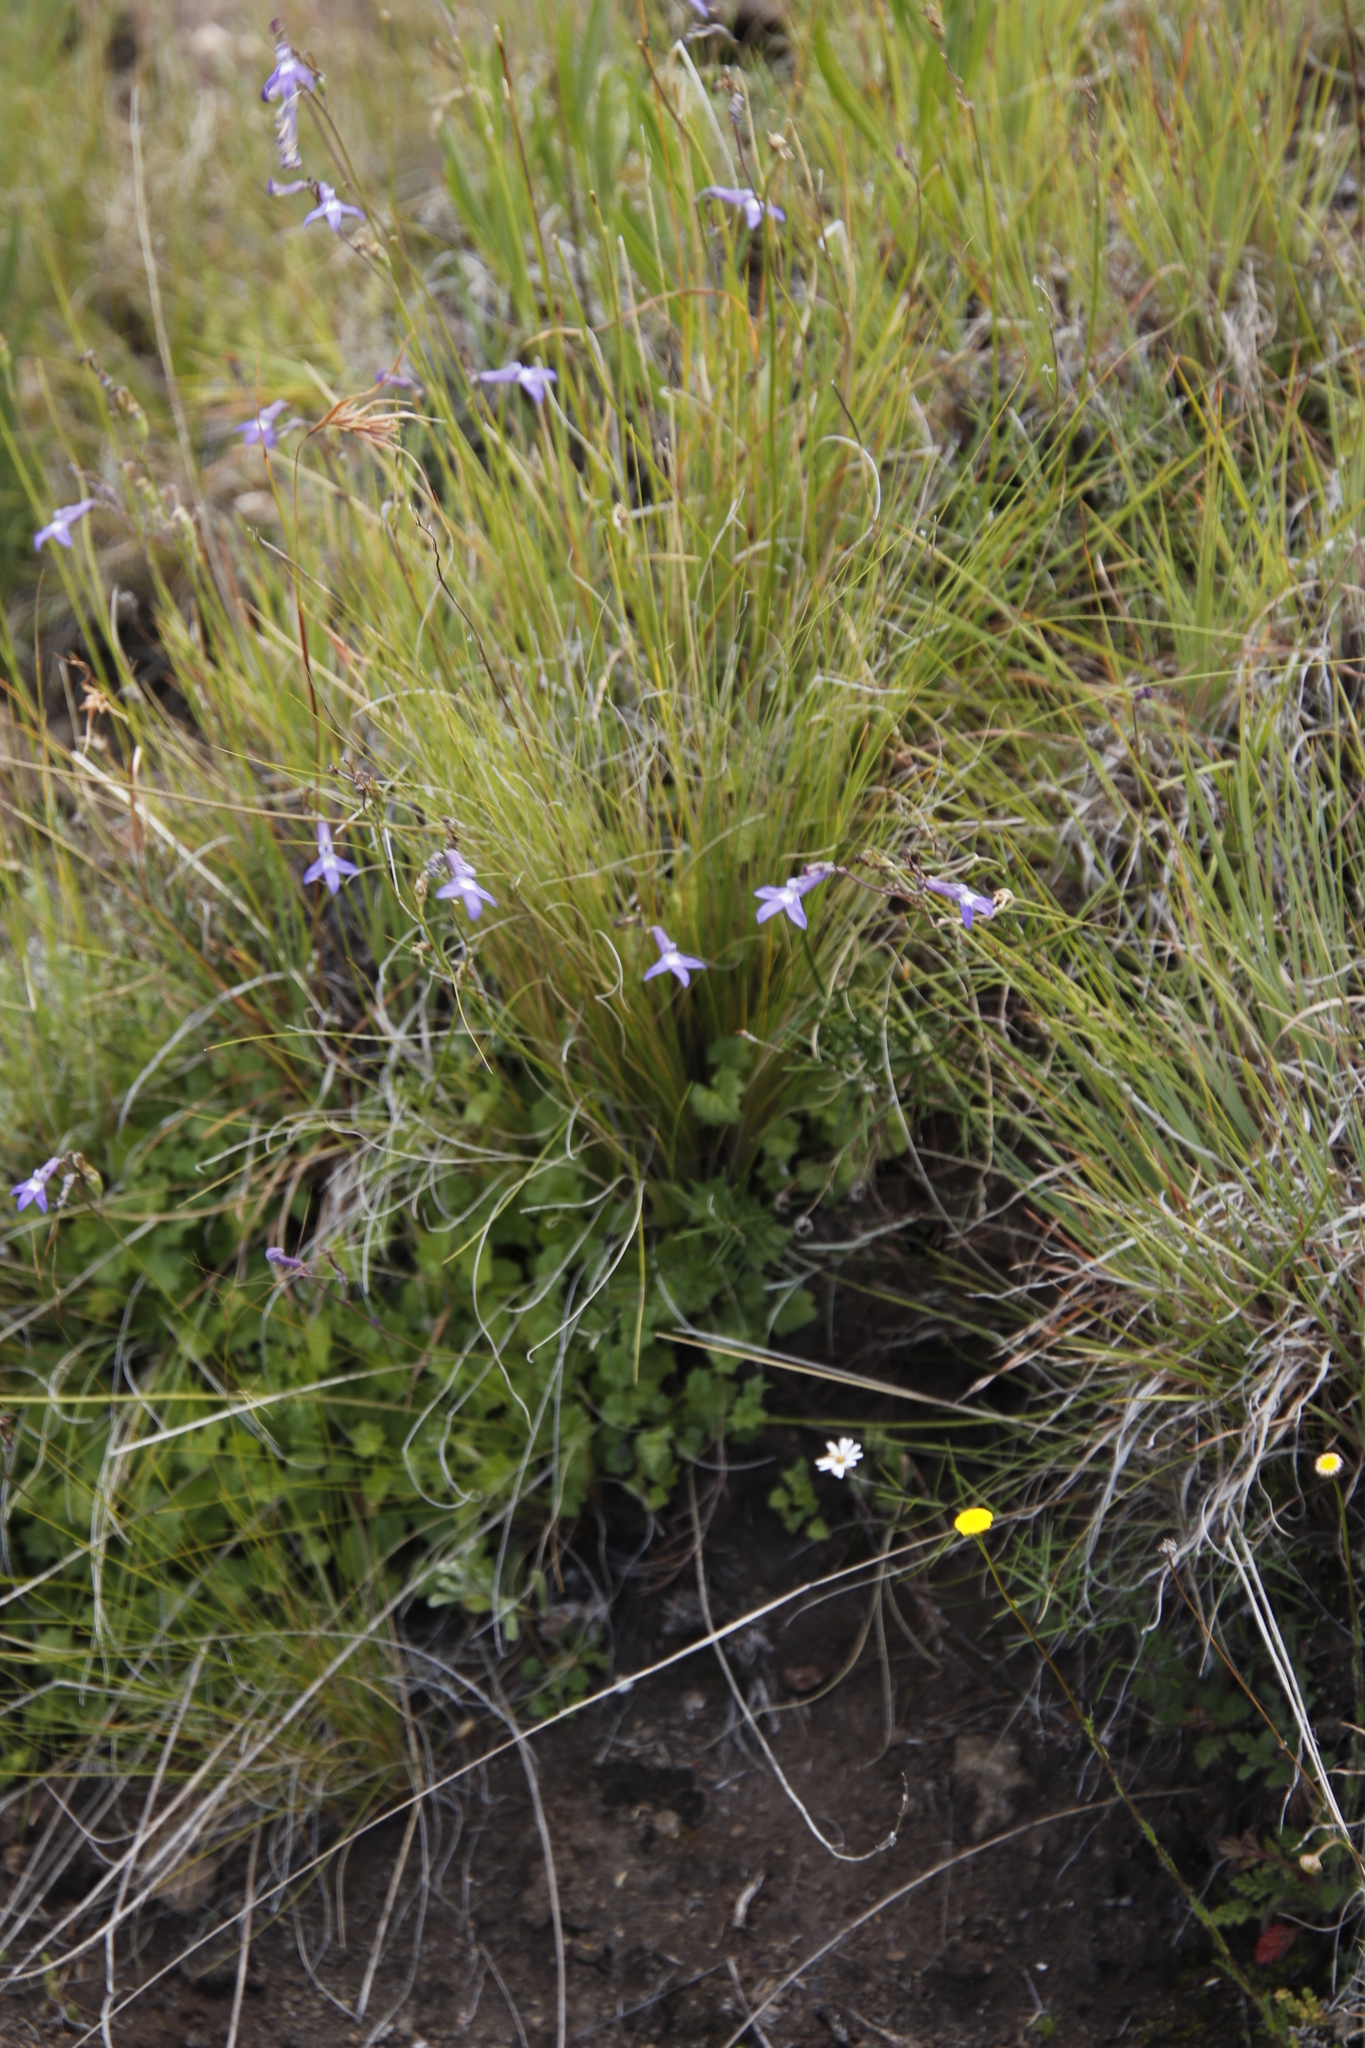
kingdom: Plantae
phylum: Tracheophyta
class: Magnoliopsida
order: Asterales
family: Campanulaceae
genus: Lobelia
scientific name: Lobelia preslii
